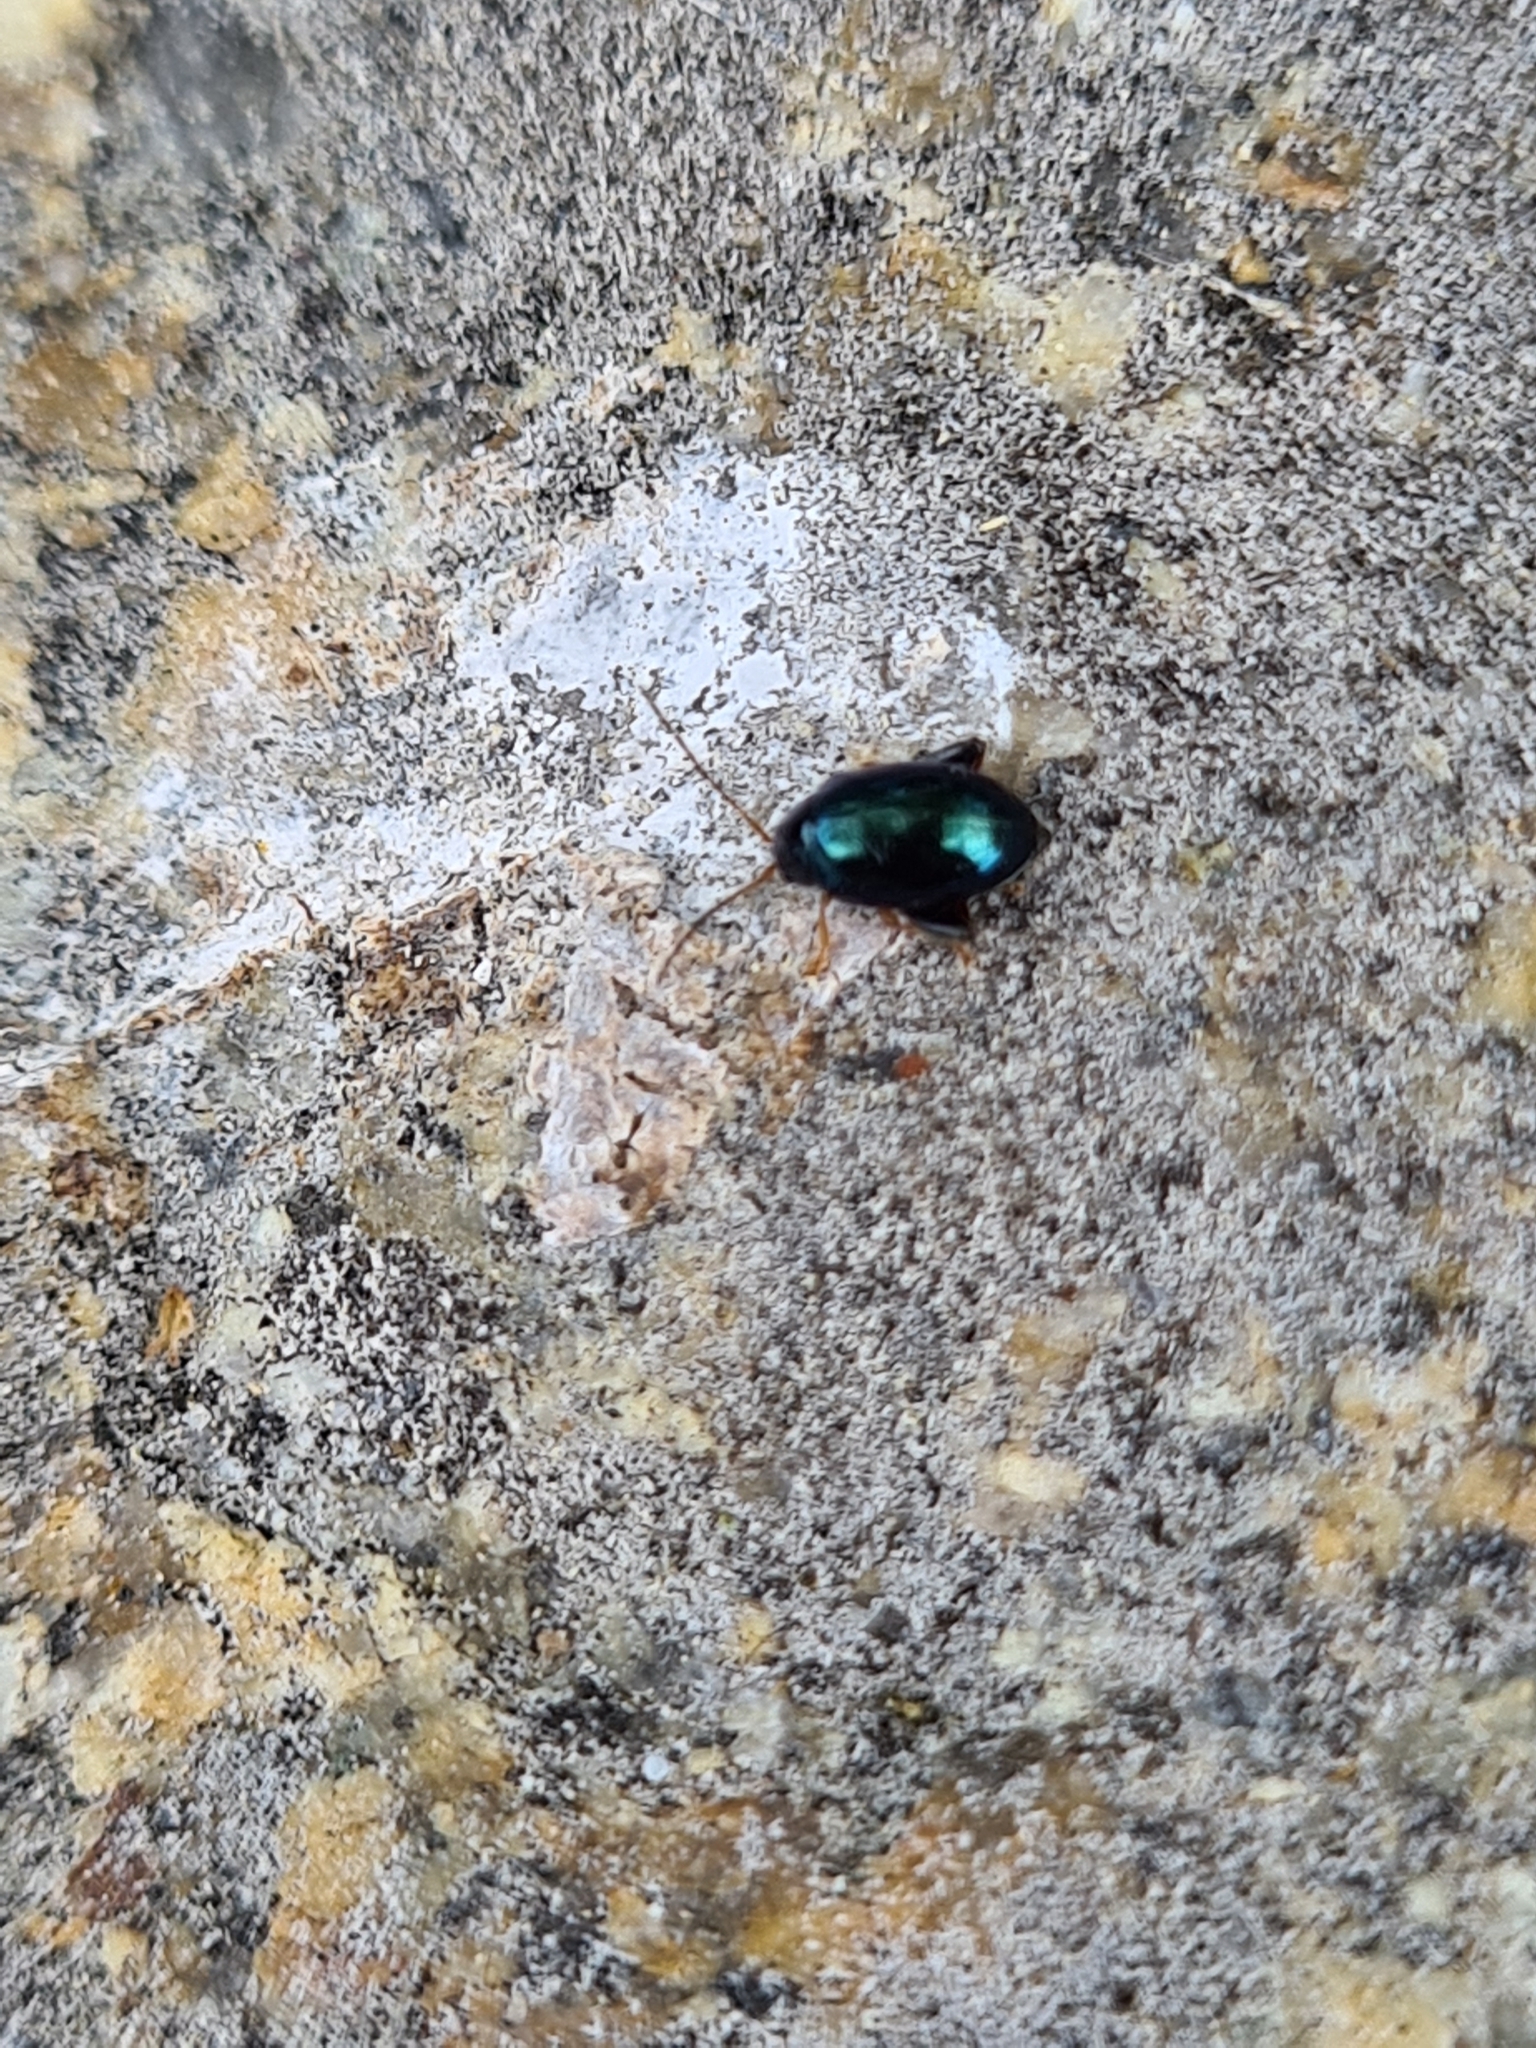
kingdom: Animalia
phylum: Arthropoda
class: Insecta
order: Coleoptera
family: Chrysomelidae
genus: Longitarsus
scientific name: Longitarsus linnaei
